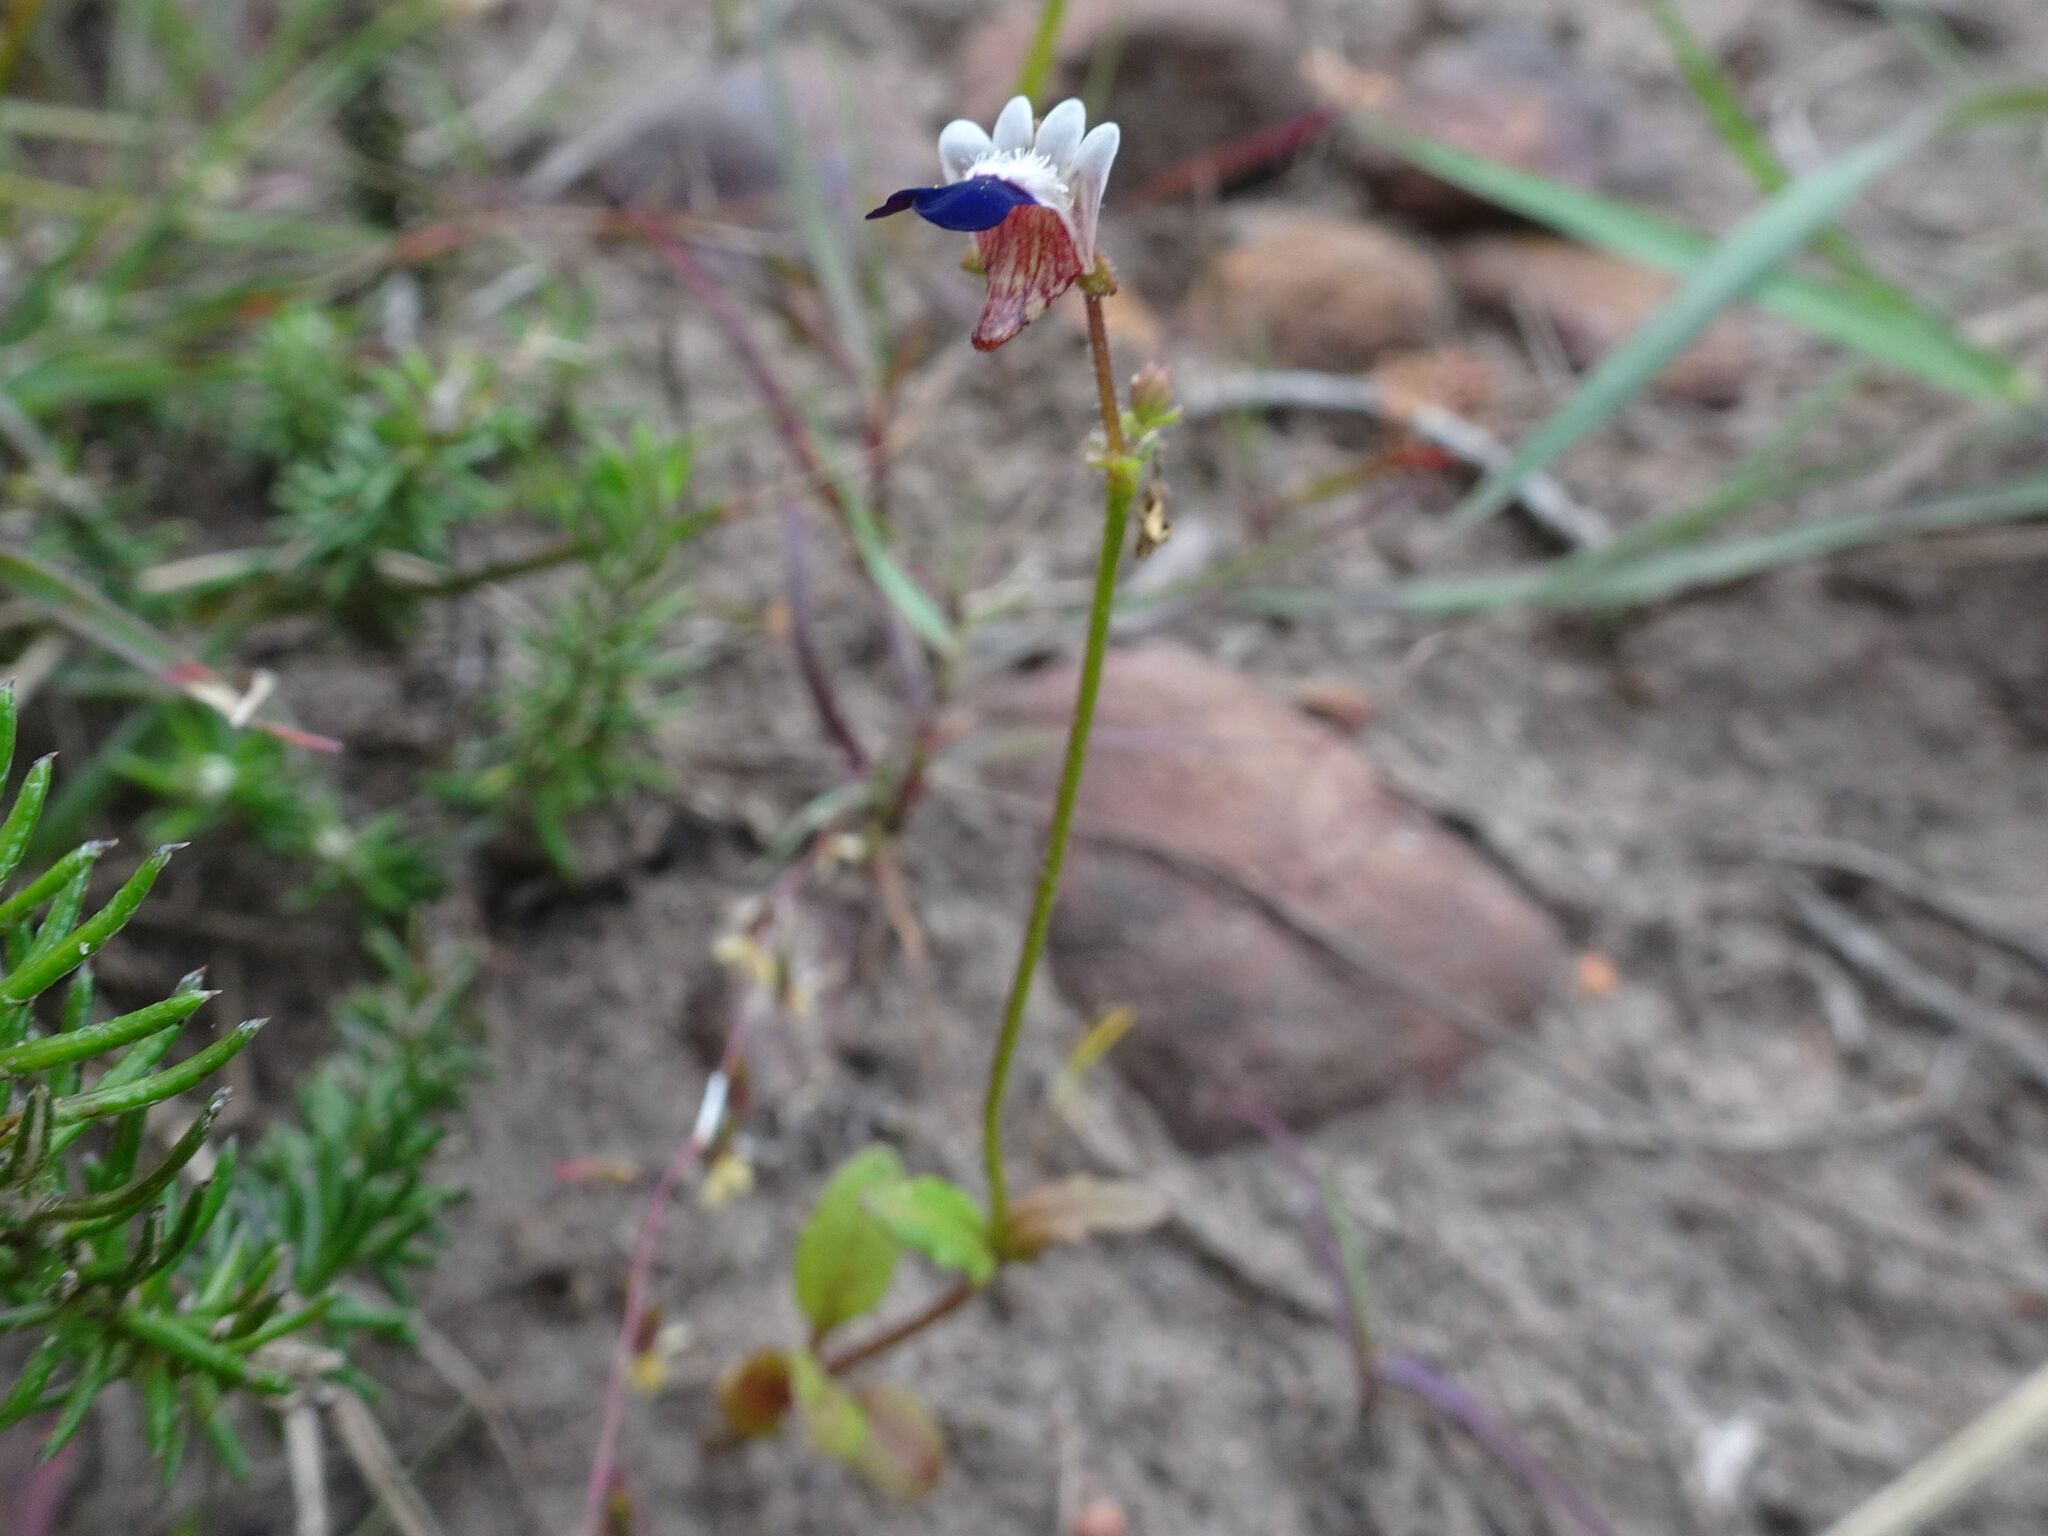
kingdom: Plantae
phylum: Tracheophyta
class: Magnoliopsida
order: Lamiales
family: Scrophulariaceae
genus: Nemesia
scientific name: Nemesia barbata
